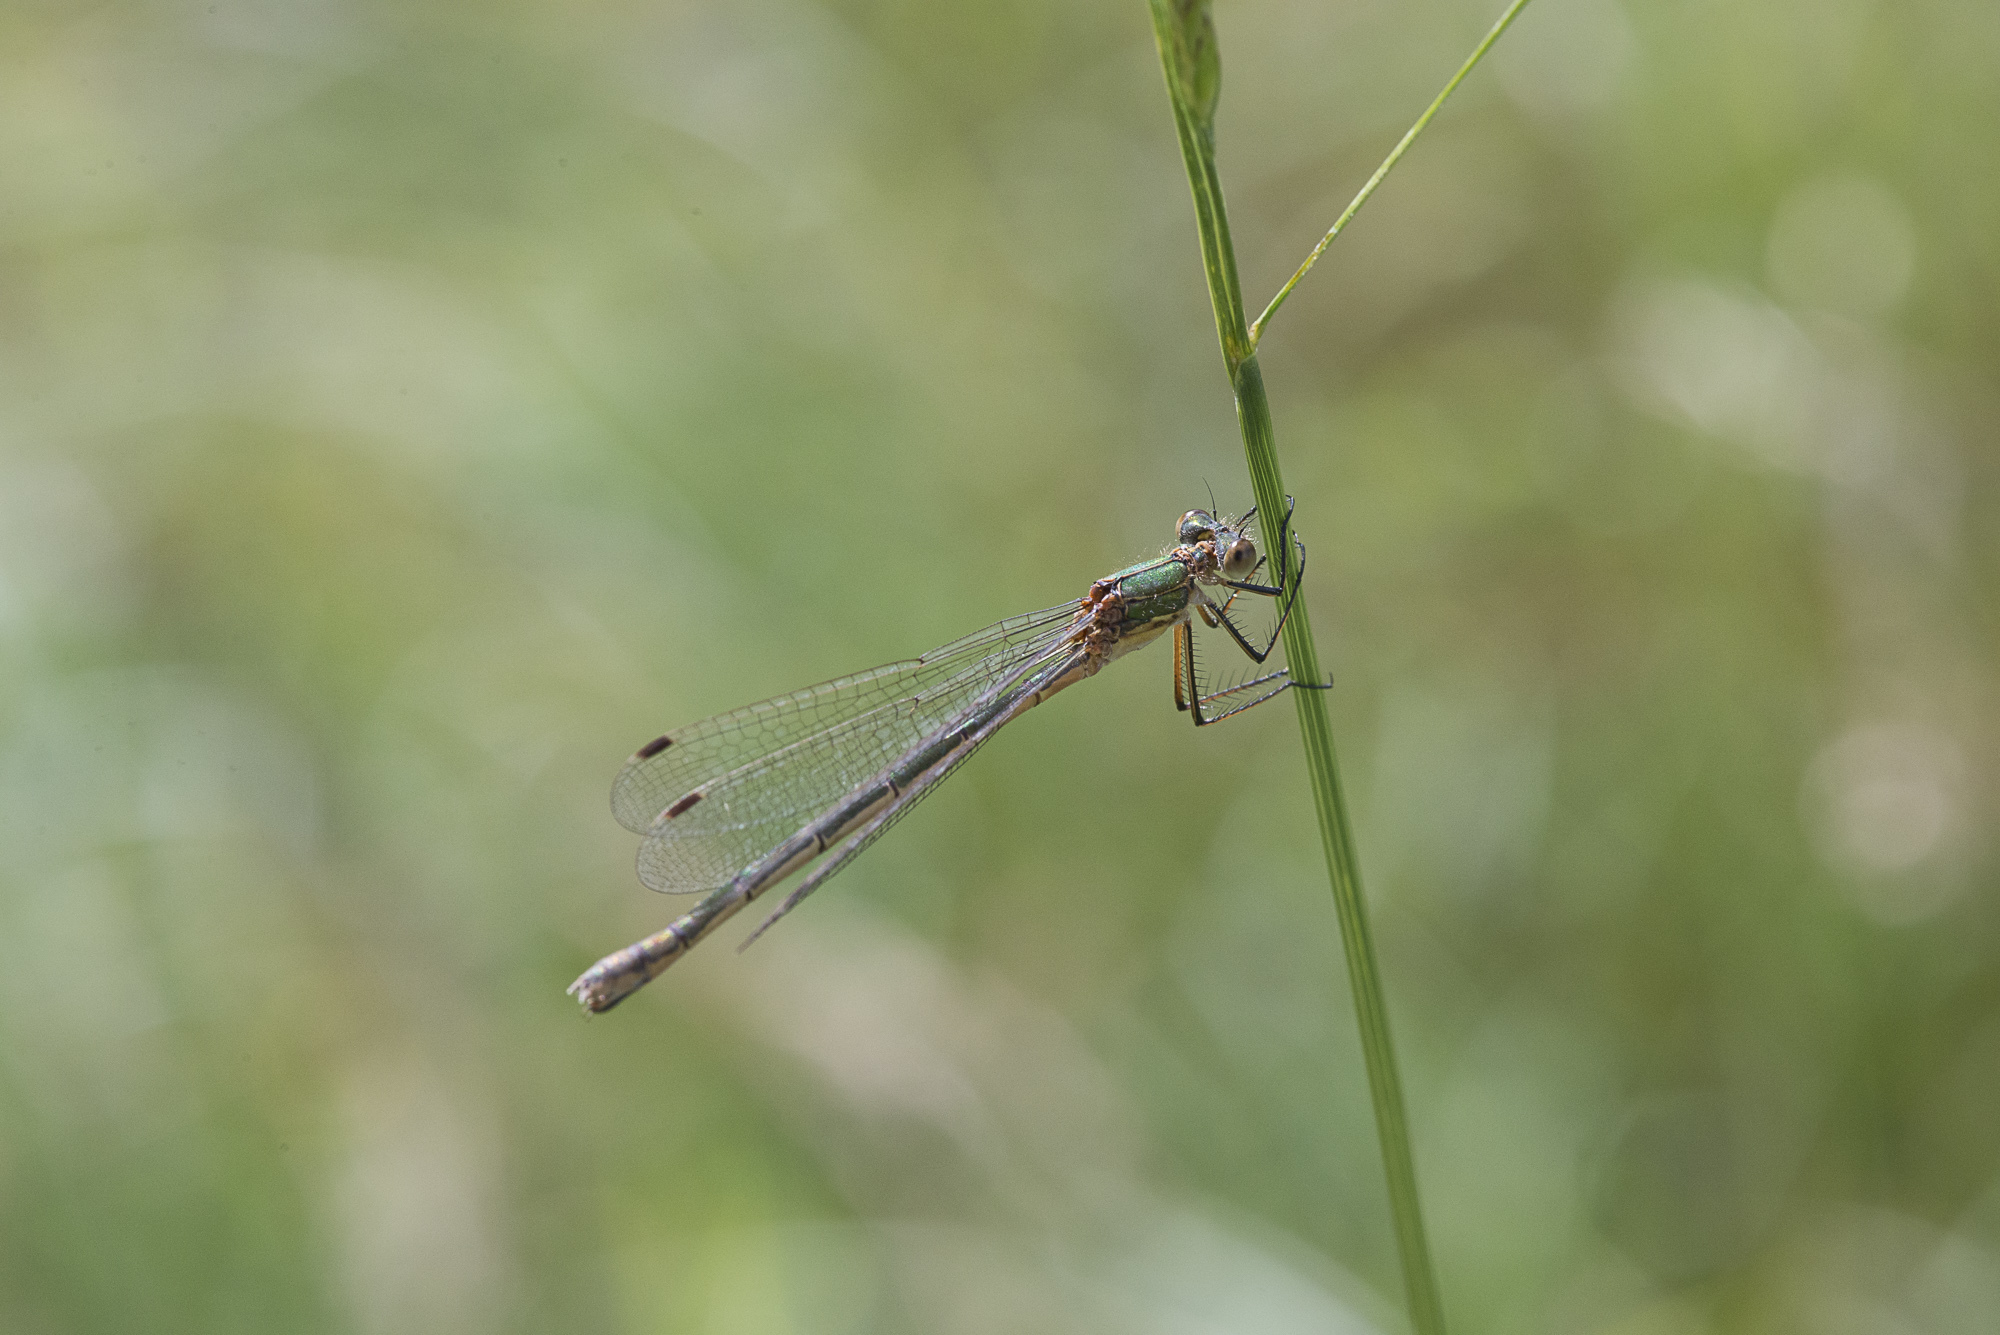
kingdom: Animalia
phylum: Arthropoda
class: Insecta
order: Odonata
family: Lestidae
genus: Lestes
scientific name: Lestes sponsa
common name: Common spreadwing
